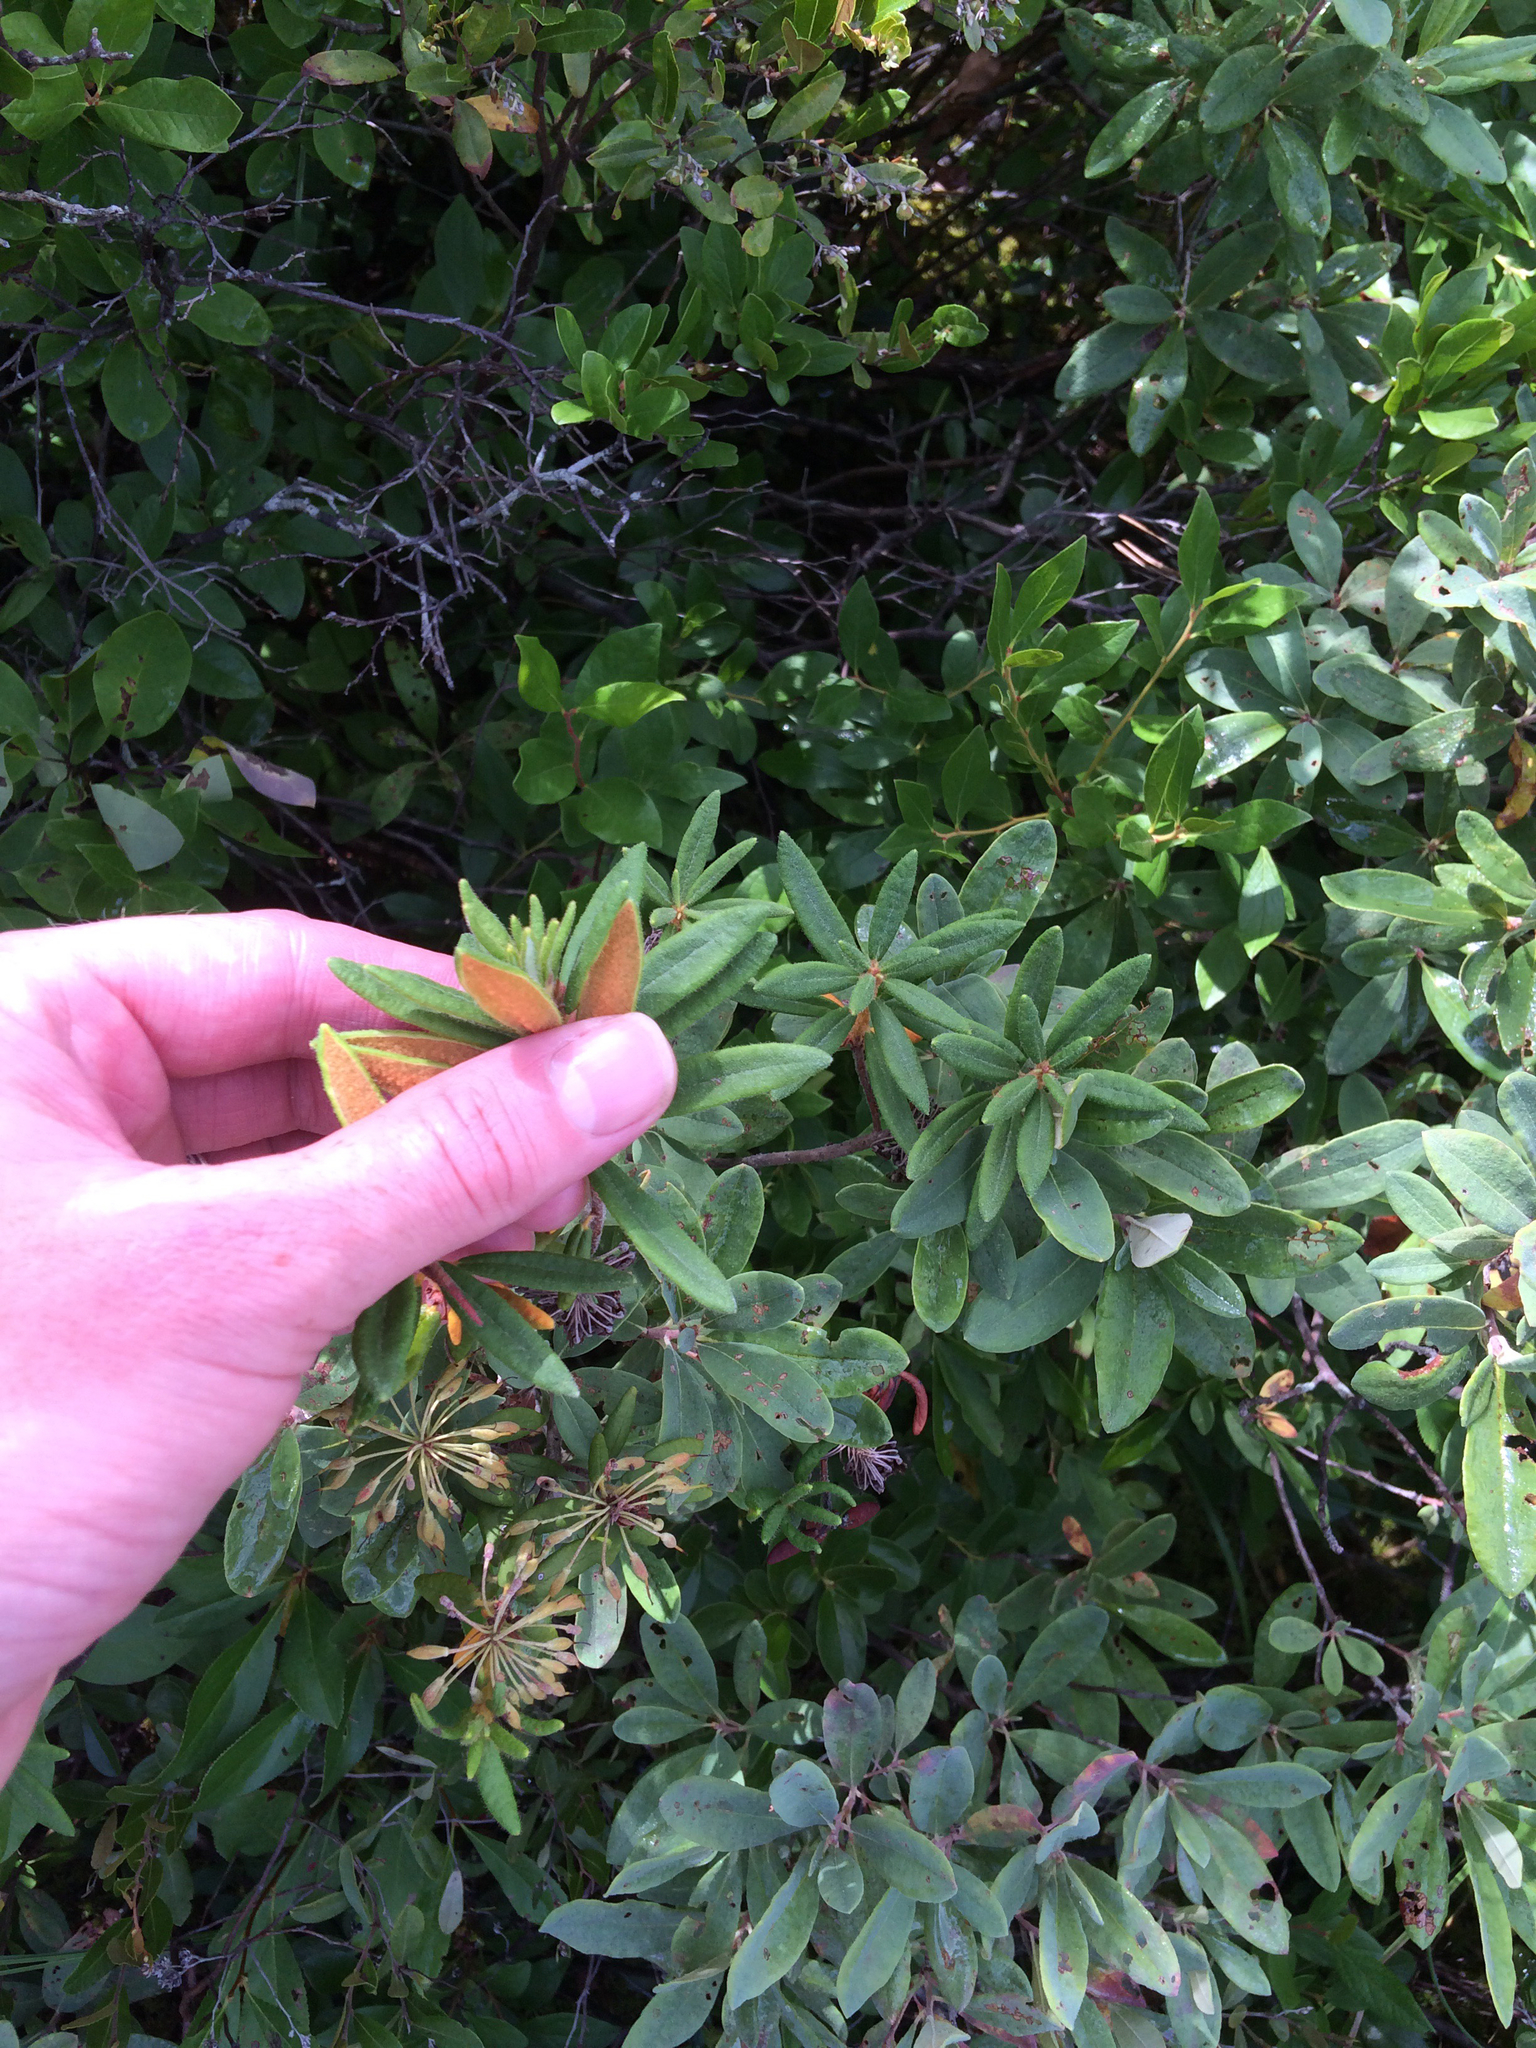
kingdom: Plantae
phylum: Tracheophyta
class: Magnoliopsida
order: Ericales
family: Ericaceae
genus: Rhododendron
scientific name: Rhododendron groenlandicum
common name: Bog labrador tea
